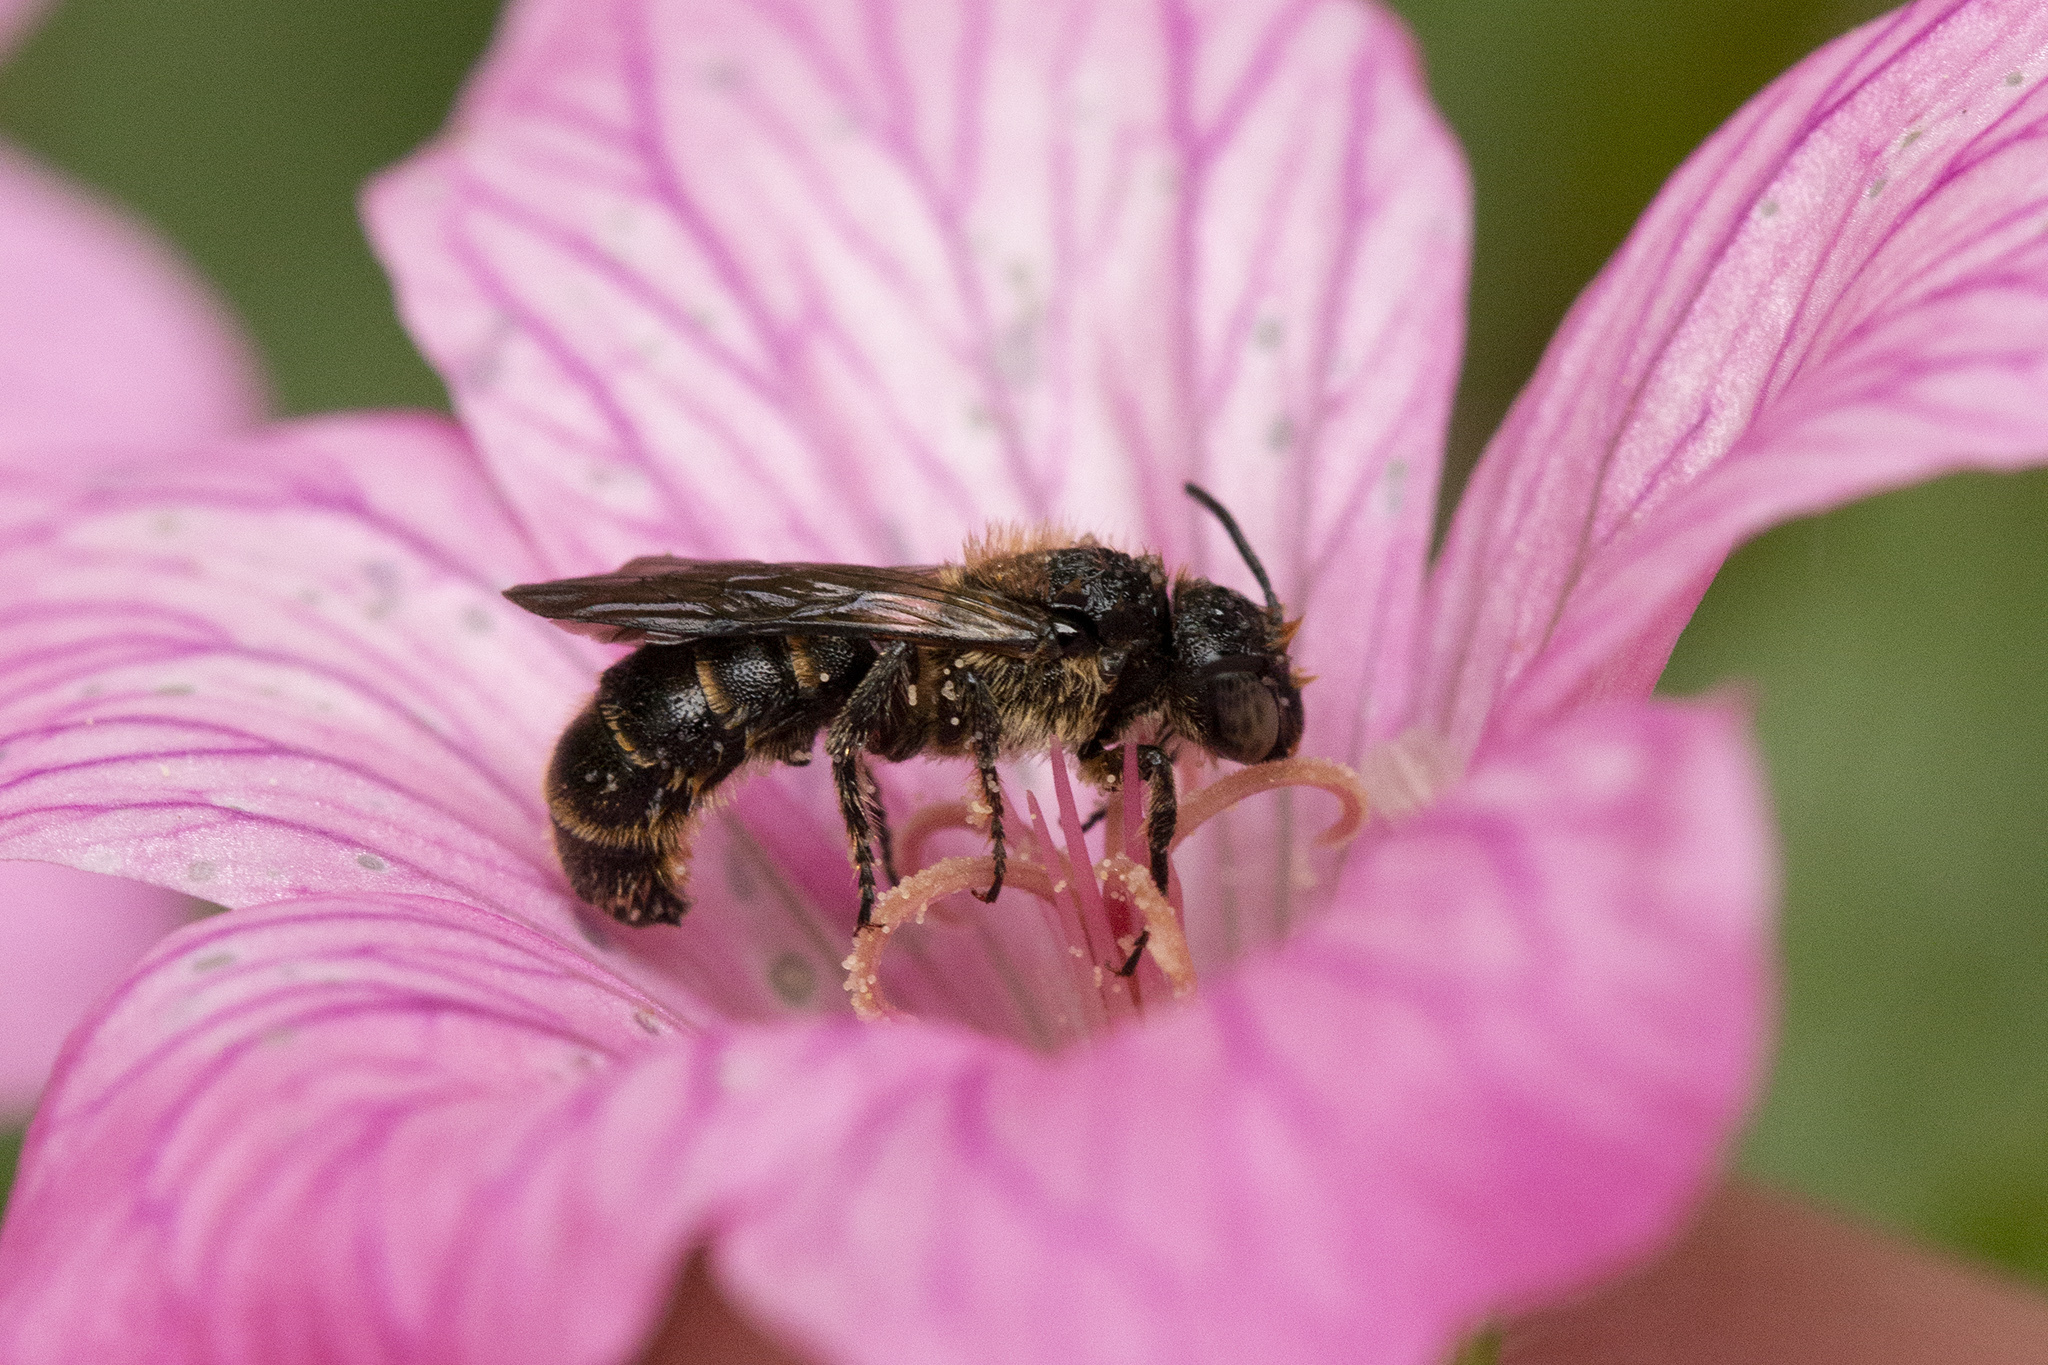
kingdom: Animalia
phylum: Arthropoda
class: Insecta
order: Hymenoptera
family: Megachilidae
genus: Chelostoma
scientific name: Chelostoma rapunculi
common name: Rampion scissor bee
